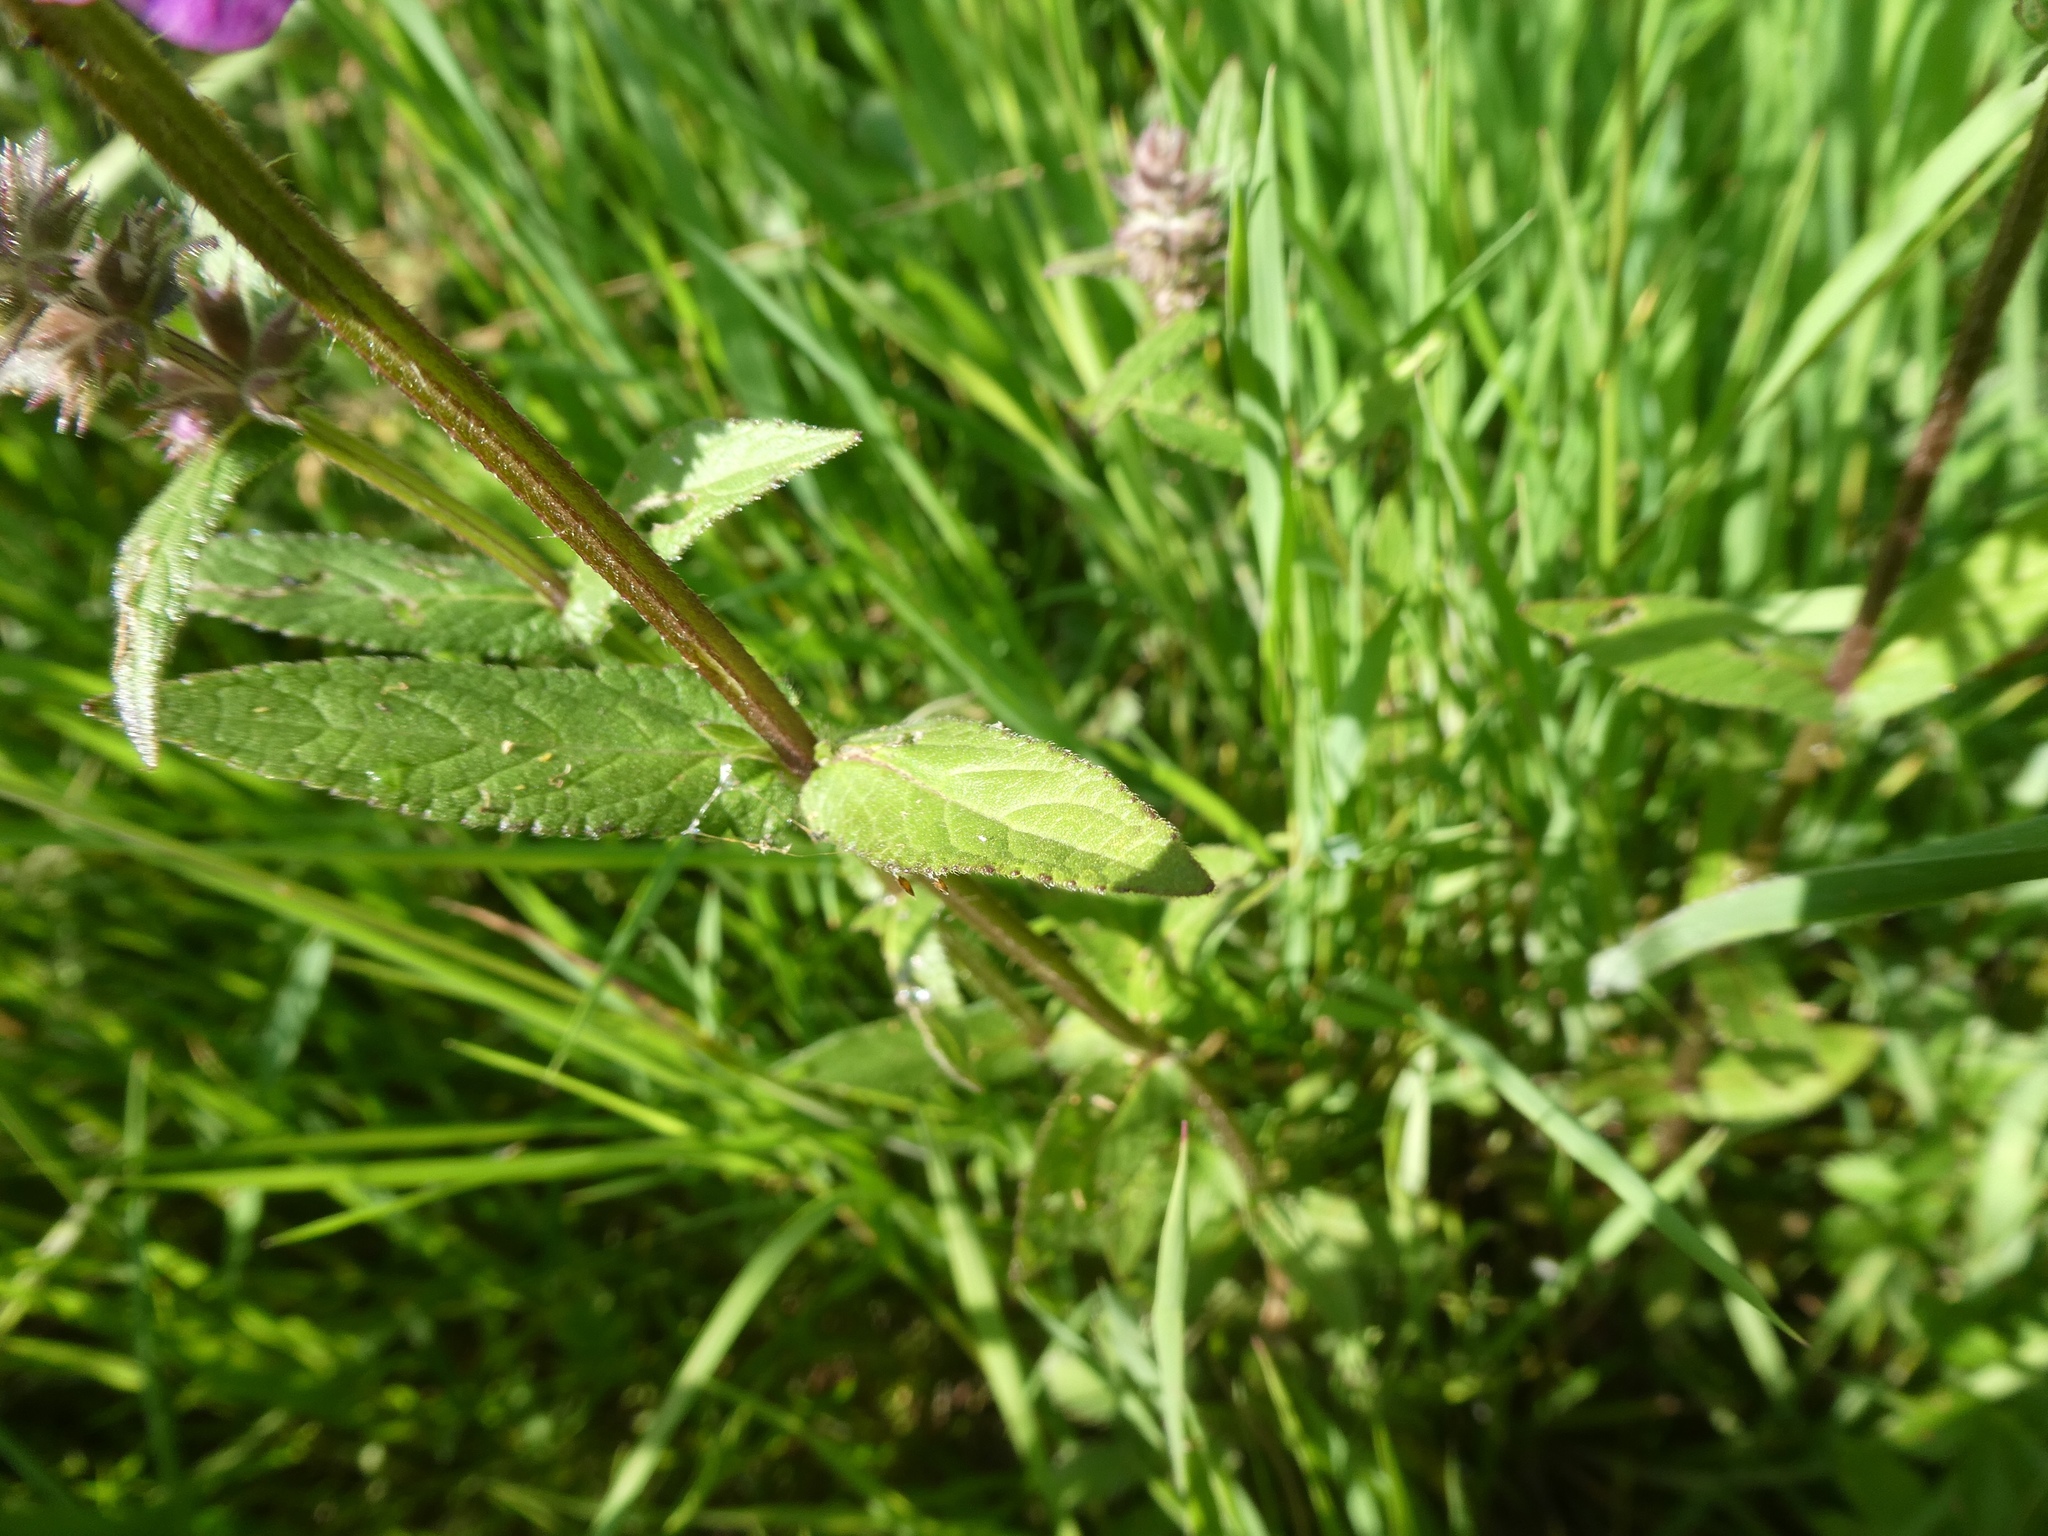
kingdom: Plantae
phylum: Tracheophyta
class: Magnoliopsida
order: Lamiales
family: Lamiaceae
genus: Stachys
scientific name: Stachys palustris
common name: Marsh woundwort
